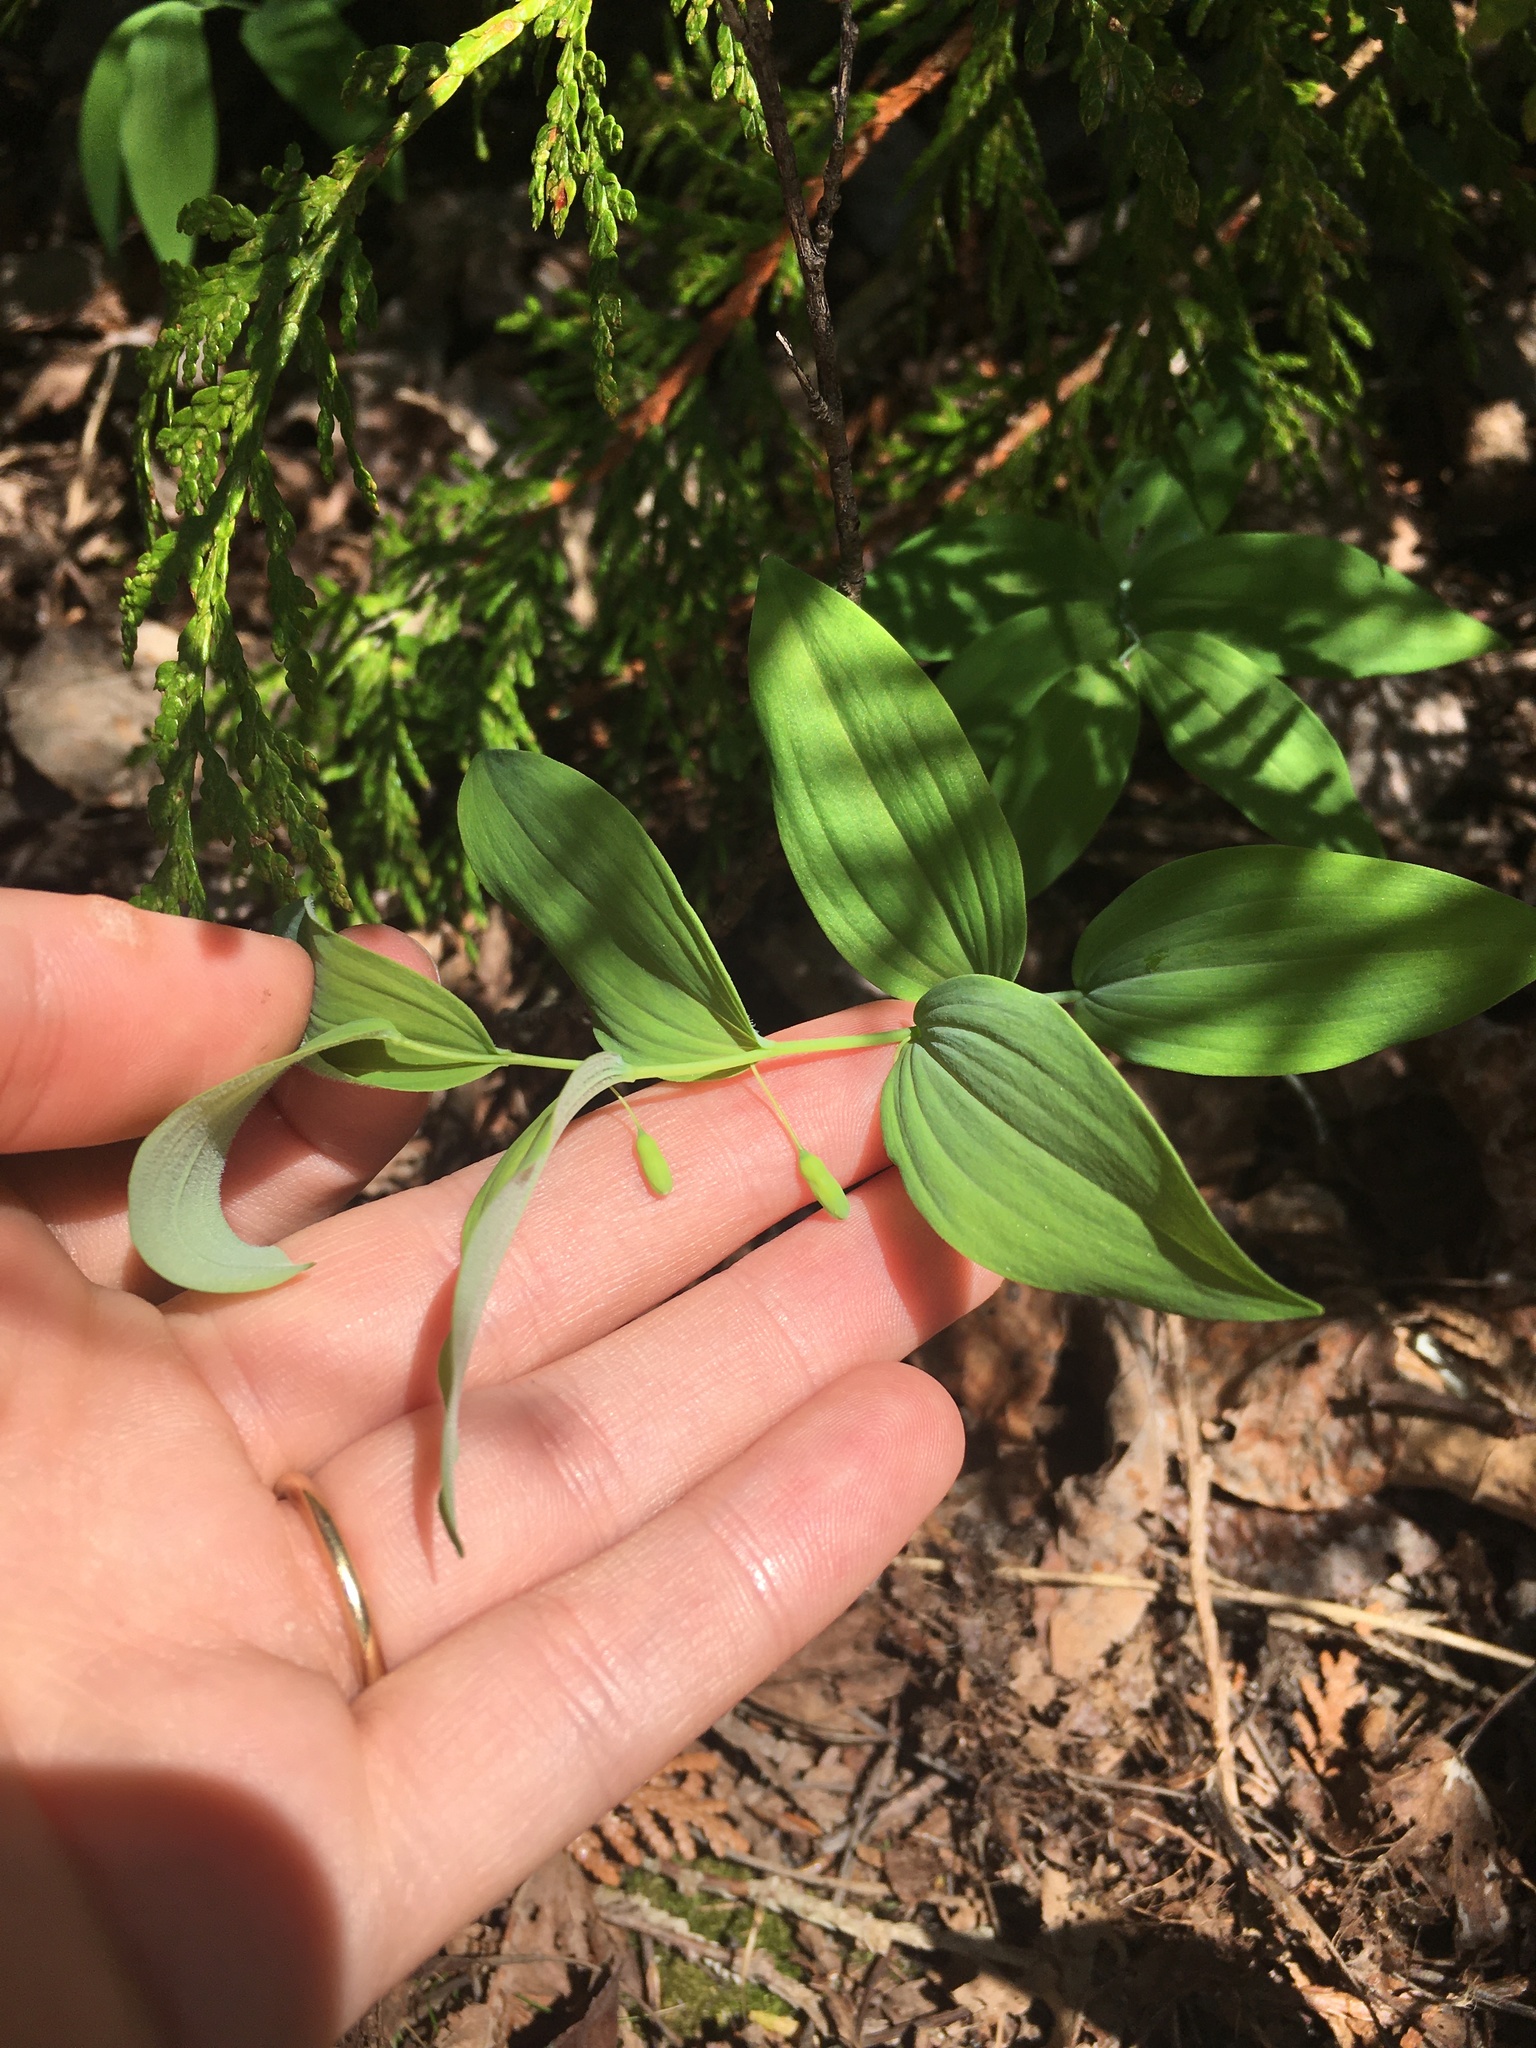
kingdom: Plantae
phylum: Tracheophyta
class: Liliopsida
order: Asparagales
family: Asparagaceae
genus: Polygonatum
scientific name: Polygonatum pubescens
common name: Downy solomon's seal
